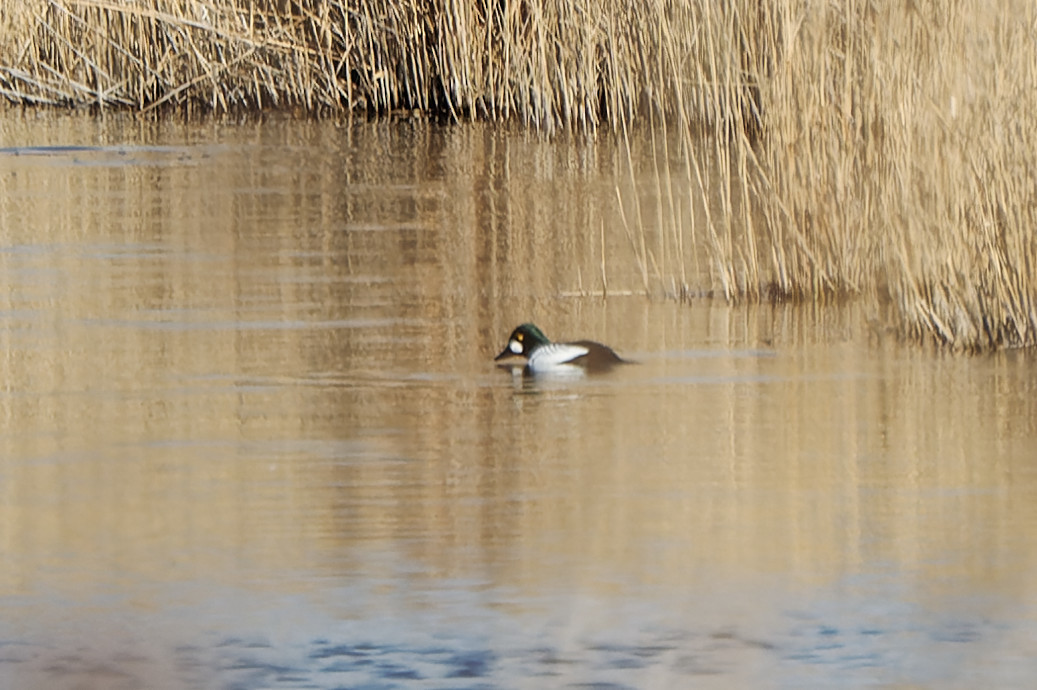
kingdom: Animalia
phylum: Chordata
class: Aves
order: Anseriformes
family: Anatidae
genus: Bucephala
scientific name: Bucephala clangula
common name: Common goldeneye
